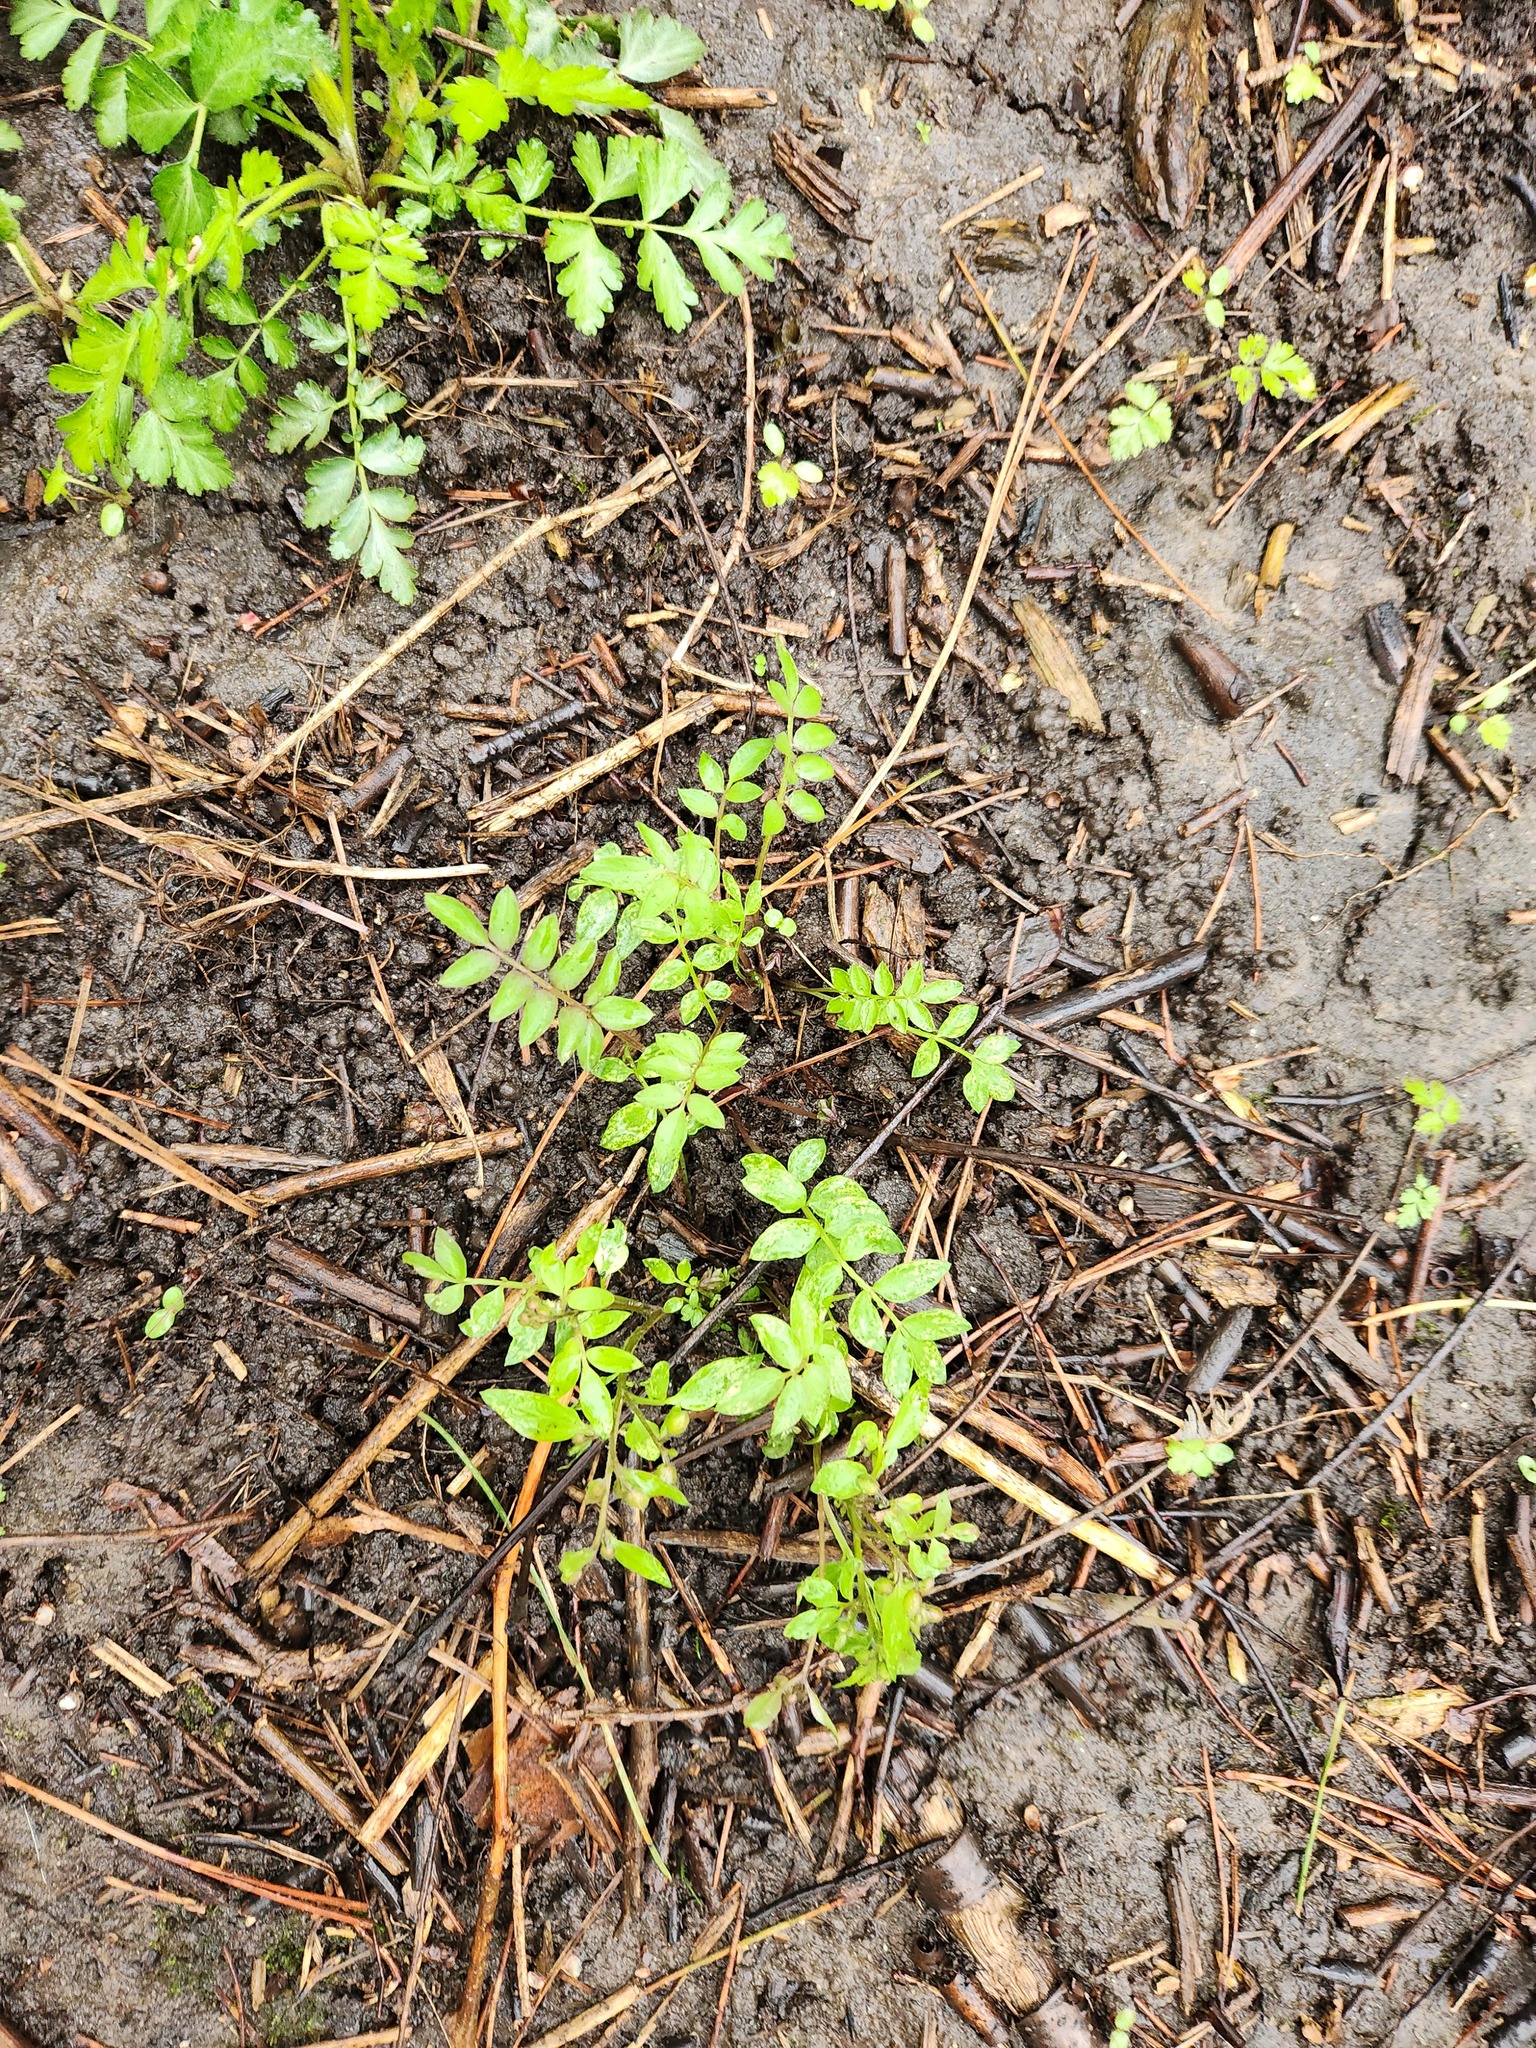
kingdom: Plantae
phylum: Tracheophyta
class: Magnoliopsida
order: Ericales
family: Polemoniaceae
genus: Polemonium
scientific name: Polemonium reptans
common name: Creeping jacob's-ladder
